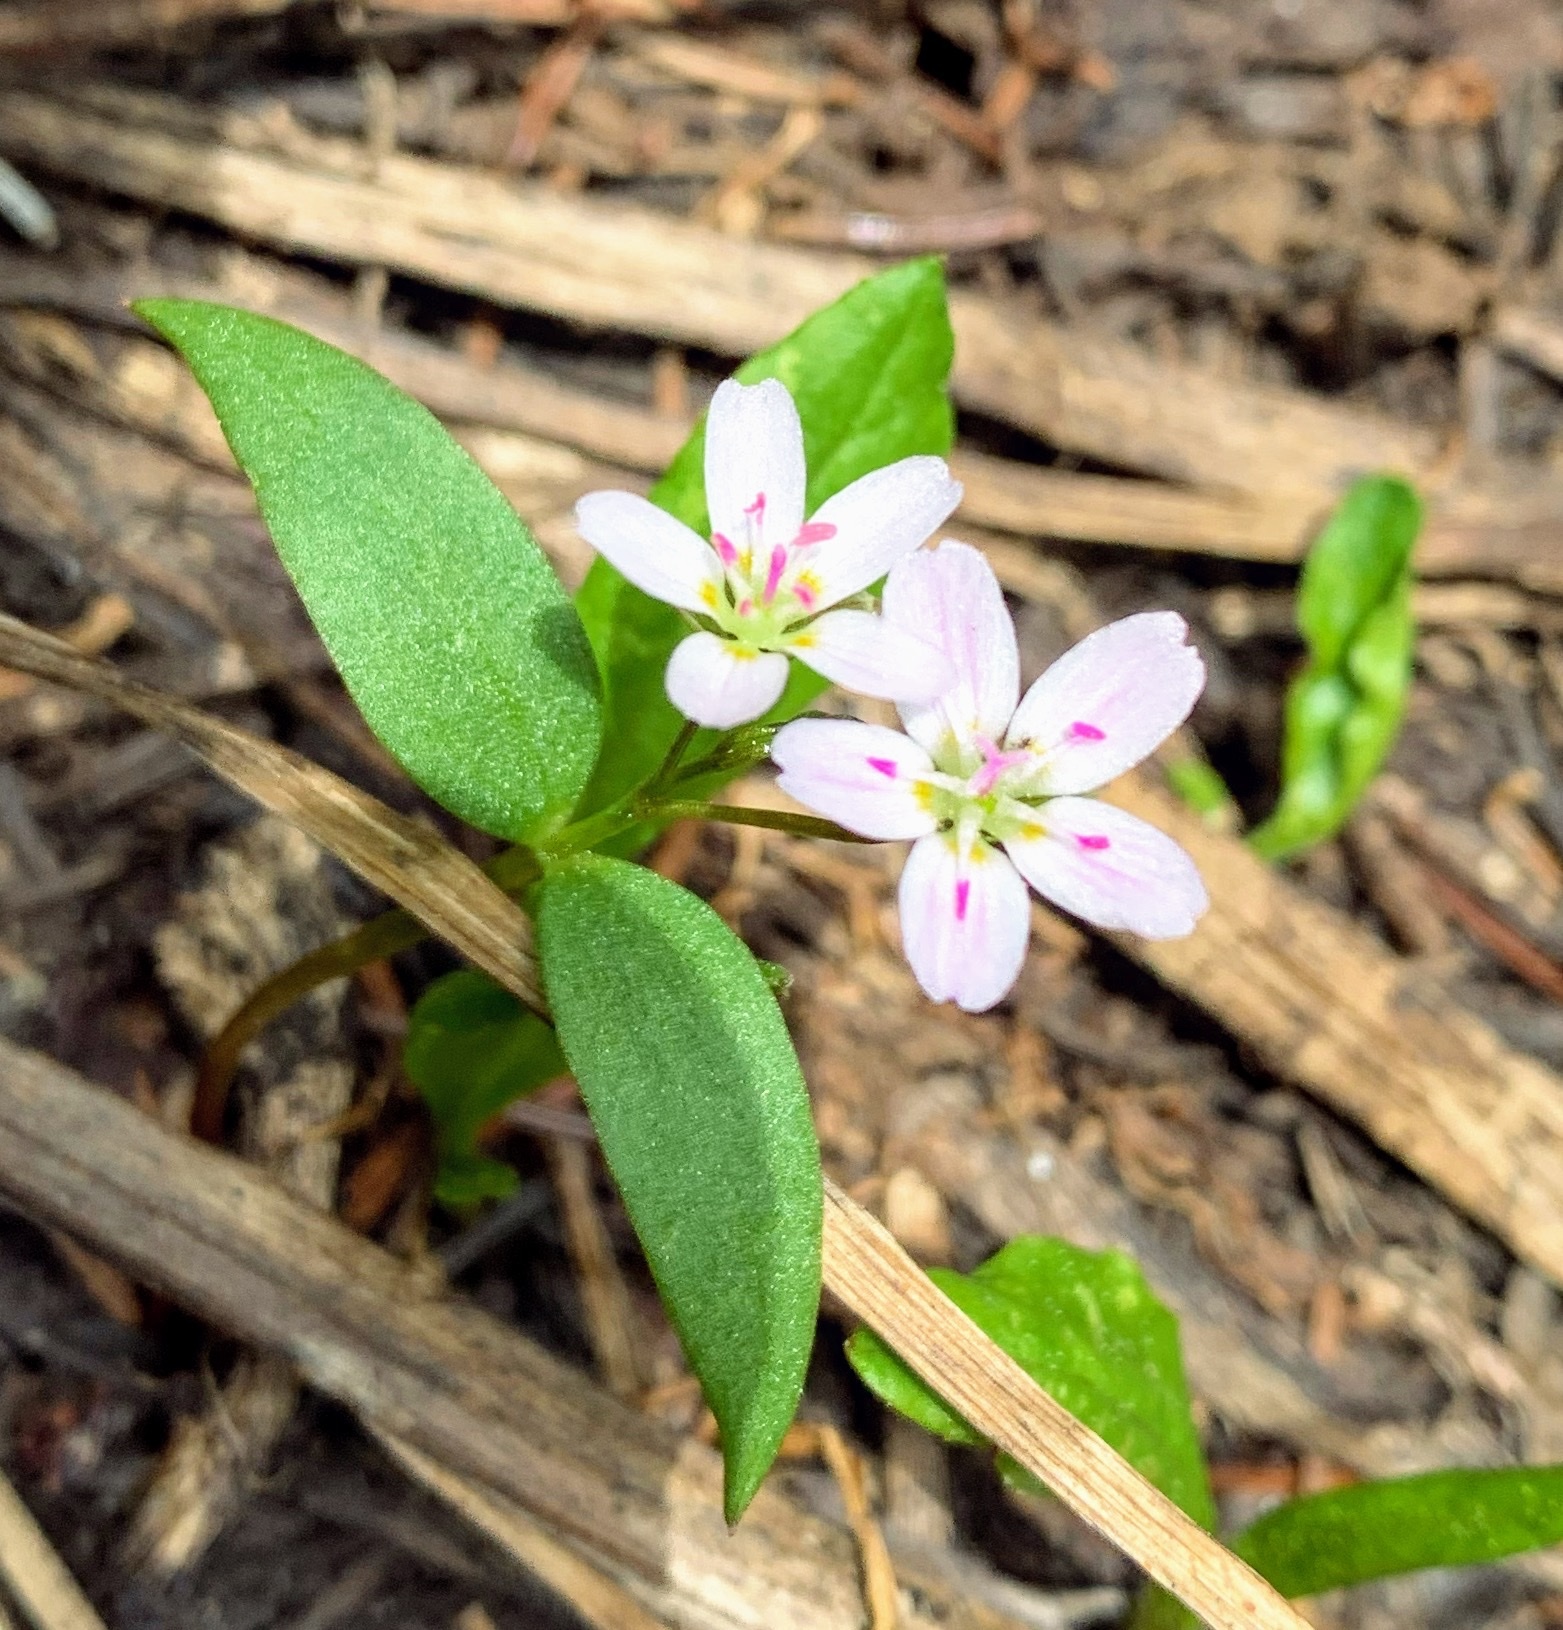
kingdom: Plantae
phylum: Tracheophyta
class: Magnoliopsida
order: Caryophyllales
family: Montiaceae
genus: Claytonia
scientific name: Claytonia lanceolata
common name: Western spring-beauty
